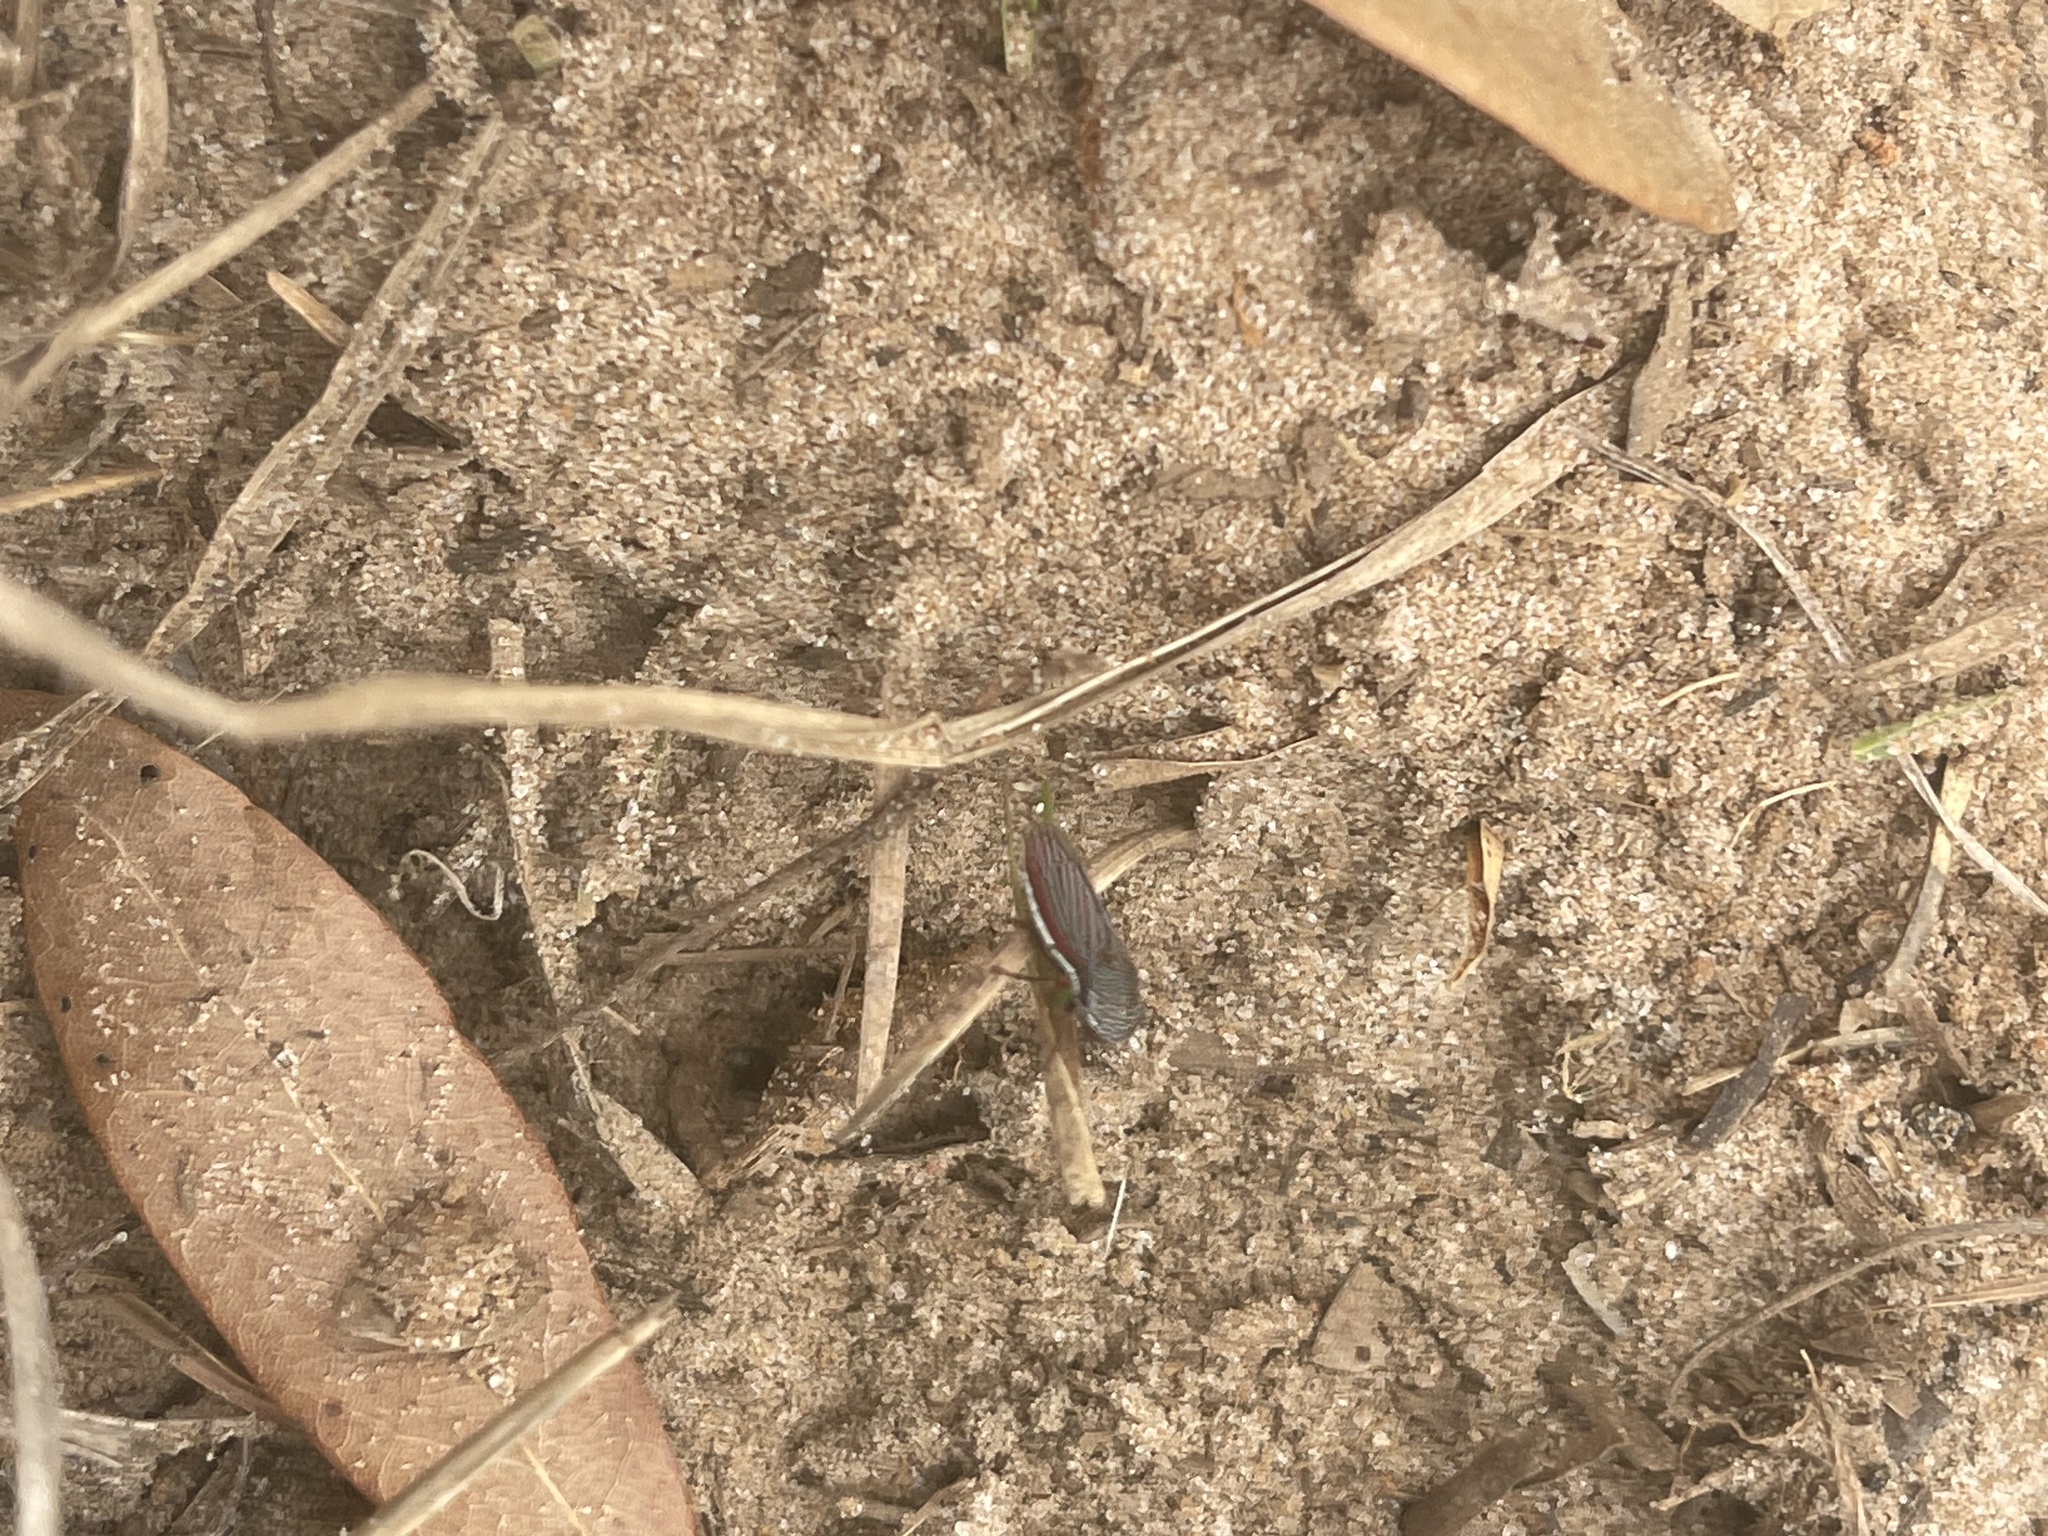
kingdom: Animalia
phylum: Arthropoda
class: Insecta
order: Hemiptera
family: Cicadellidae
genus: Cuerna
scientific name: Cuerna costalis
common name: Lateral-lined sharpshooter
